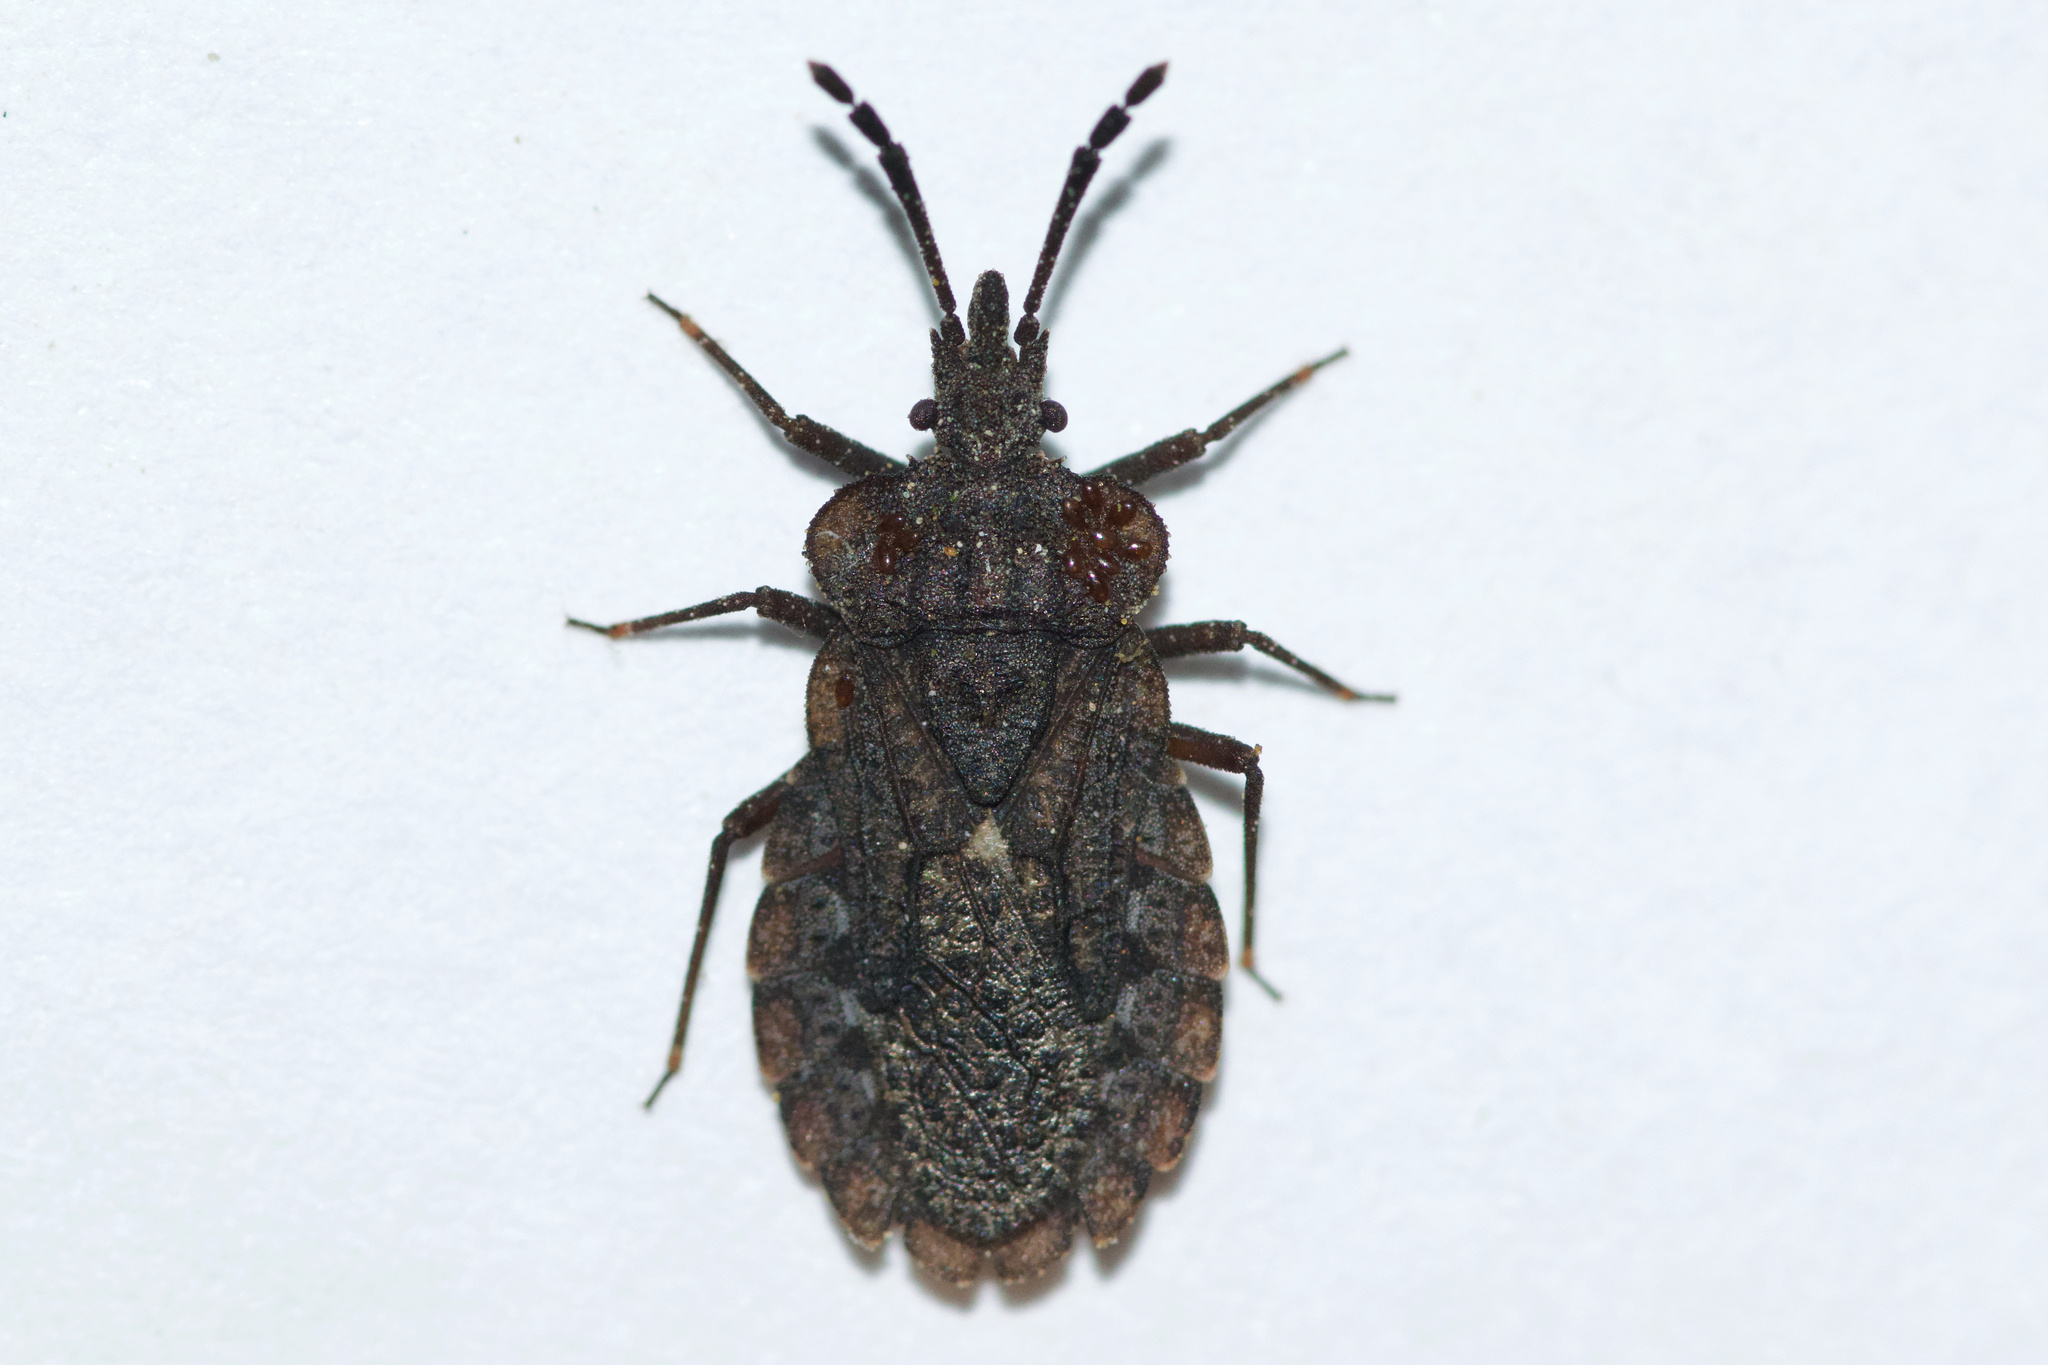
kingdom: Animalia
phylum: Arthropoda
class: Insecta
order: Hemiptera
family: Aradidae
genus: Aradus
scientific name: Aradus inornatus
